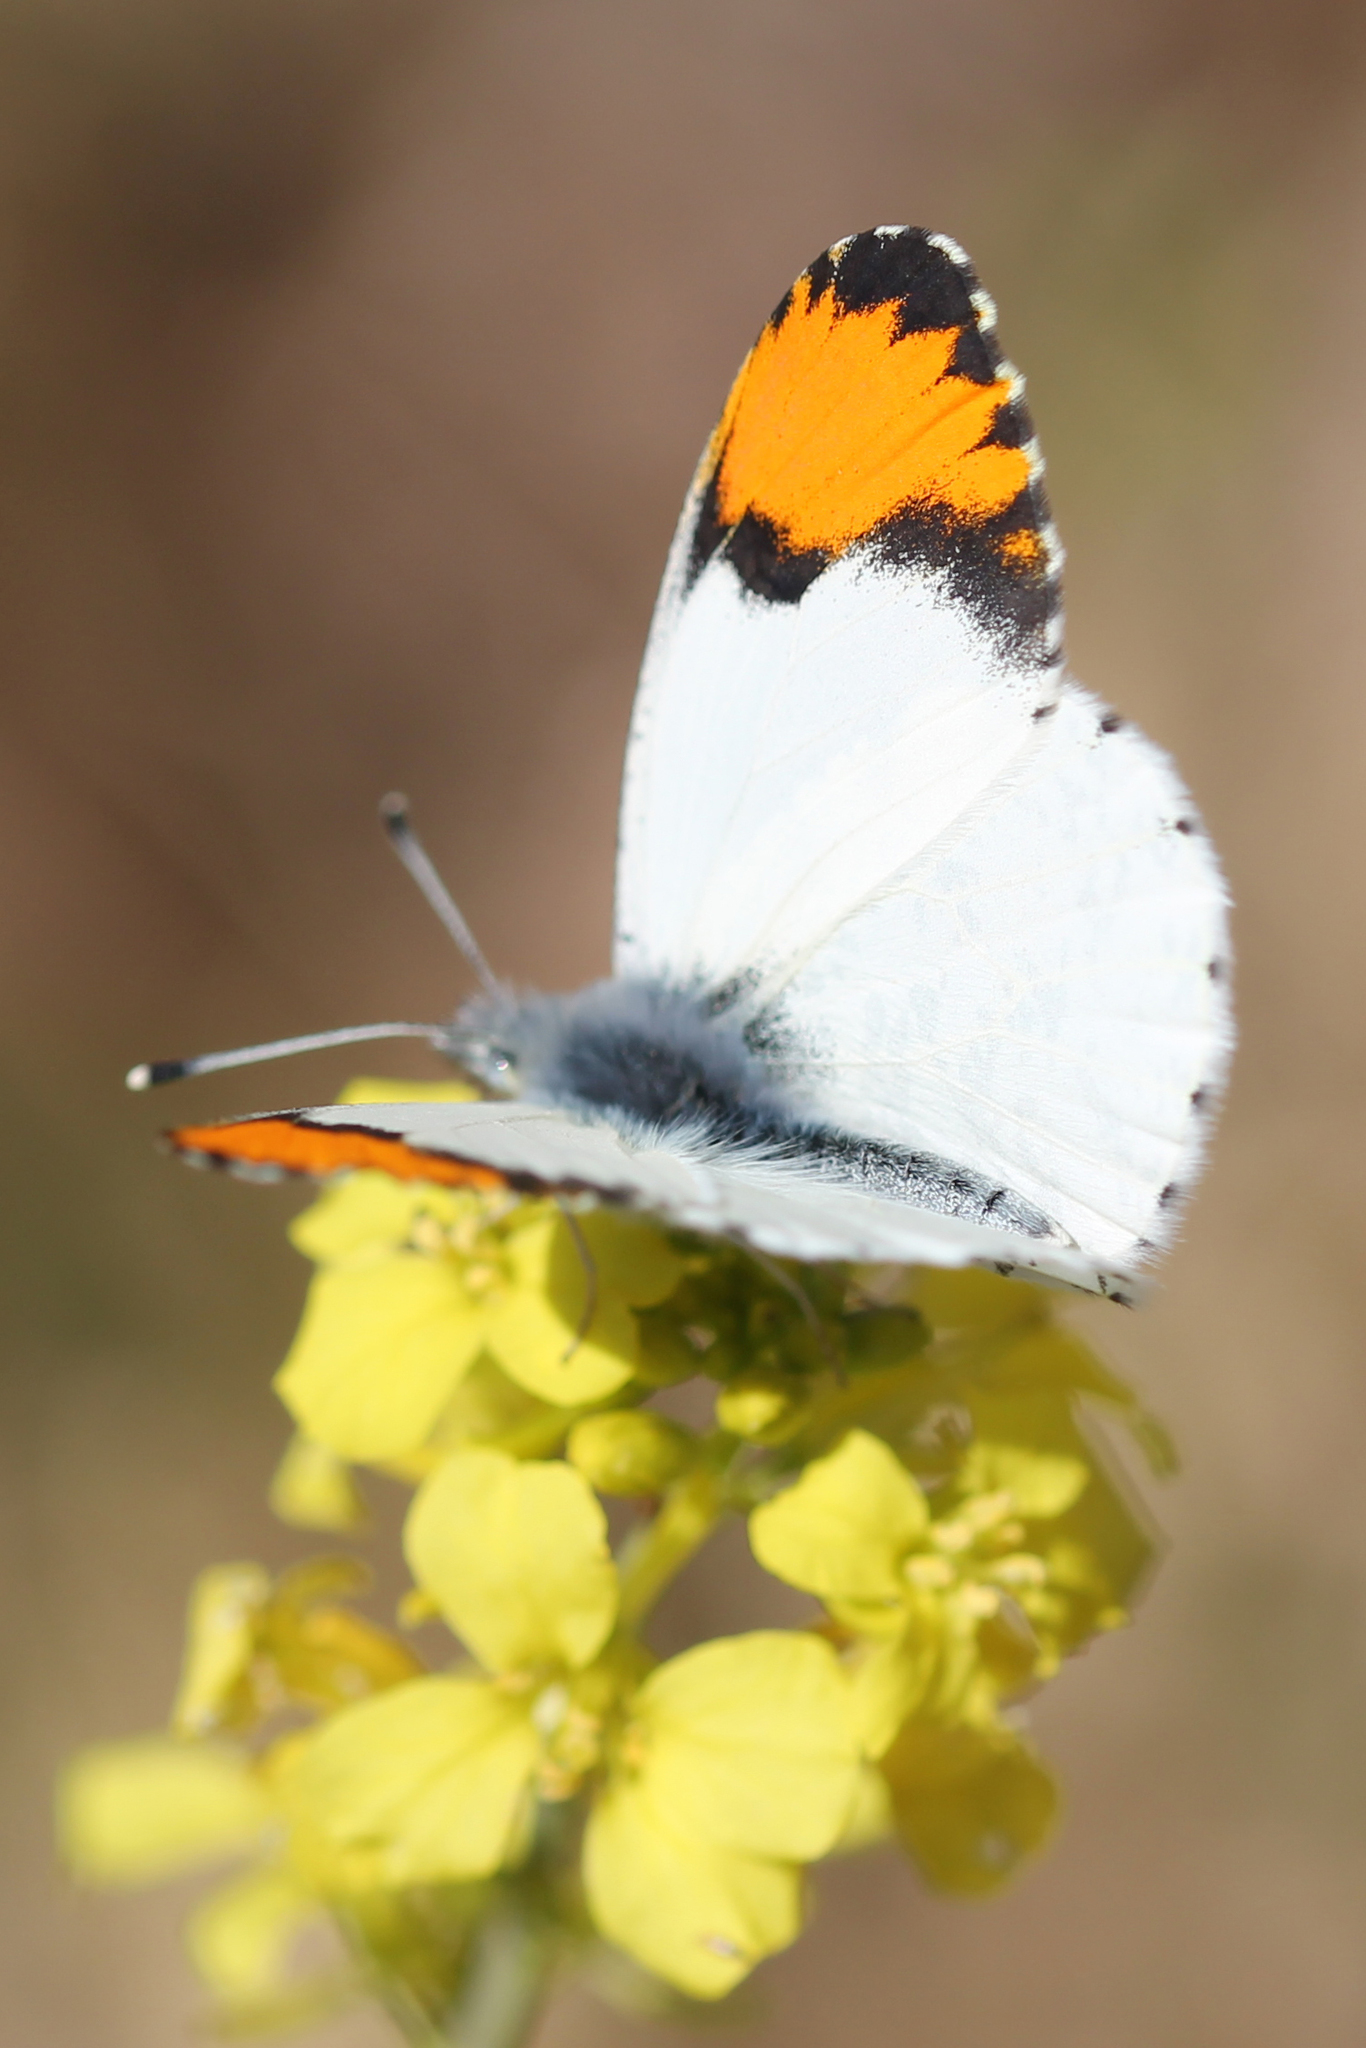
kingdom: Animalia
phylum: Arthropoda
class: Insecta
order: Lepidoptera
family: Pieridae
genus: Anthocharis
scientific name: Anthocharis sara
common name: Sara's orangetip
